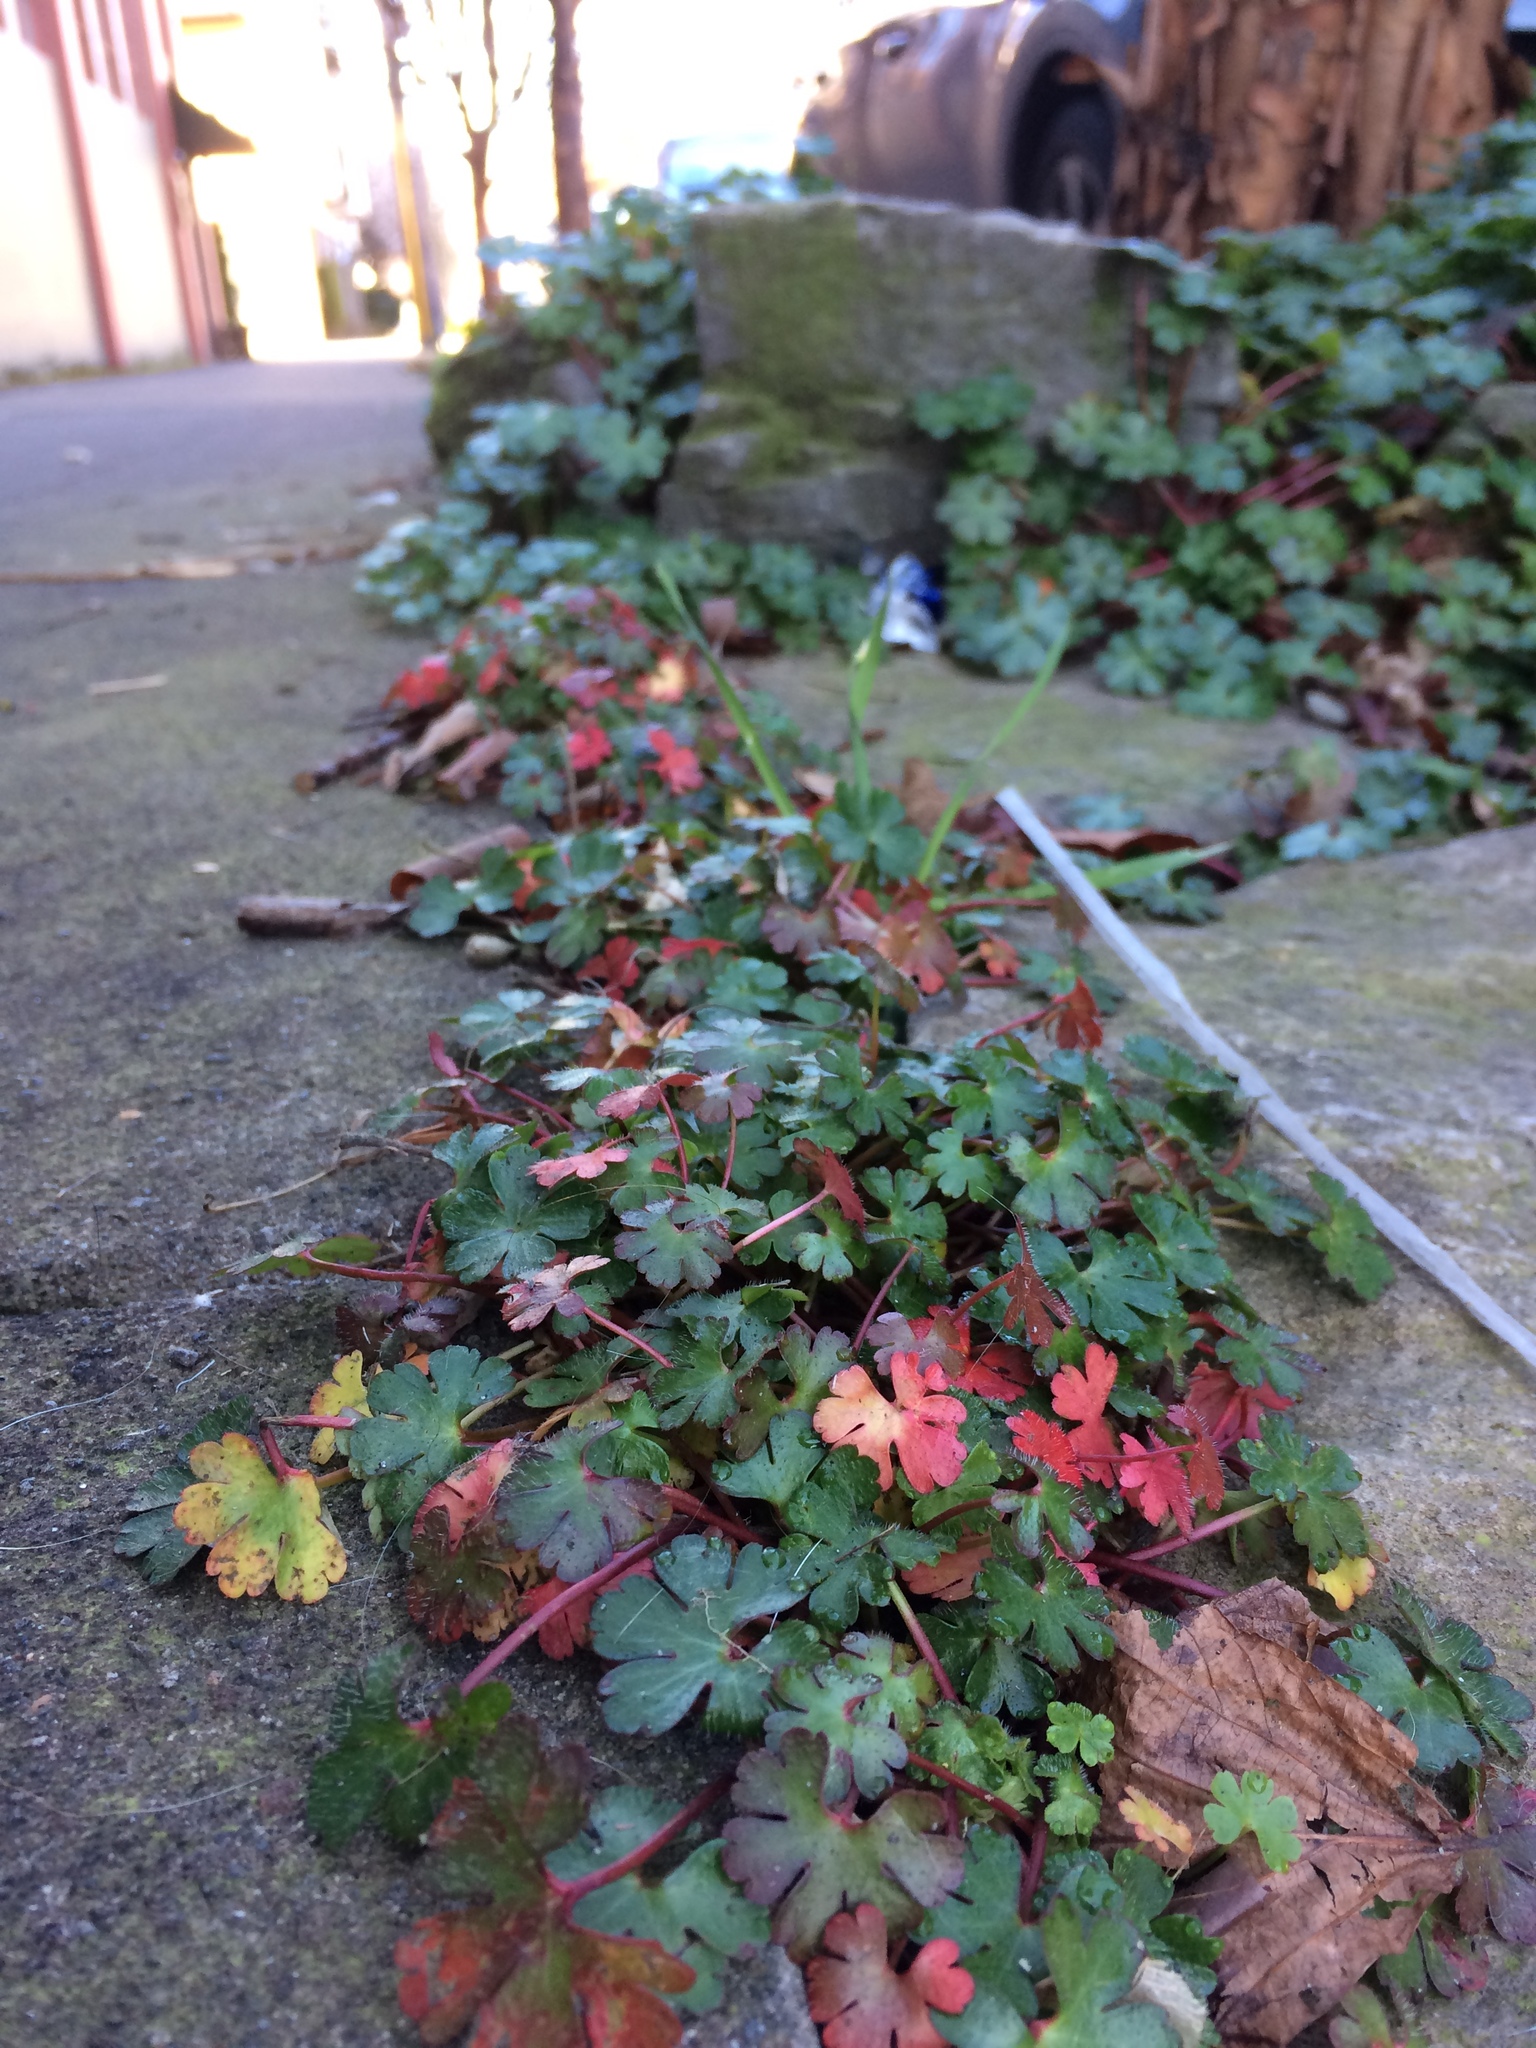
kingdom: Plantae
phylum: Tracheophyta
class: Magnoliopsida
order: Geraniales
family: Geraniaceae
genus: Geranium
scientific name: Geranium lucidum
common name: Shining crane's-bill
